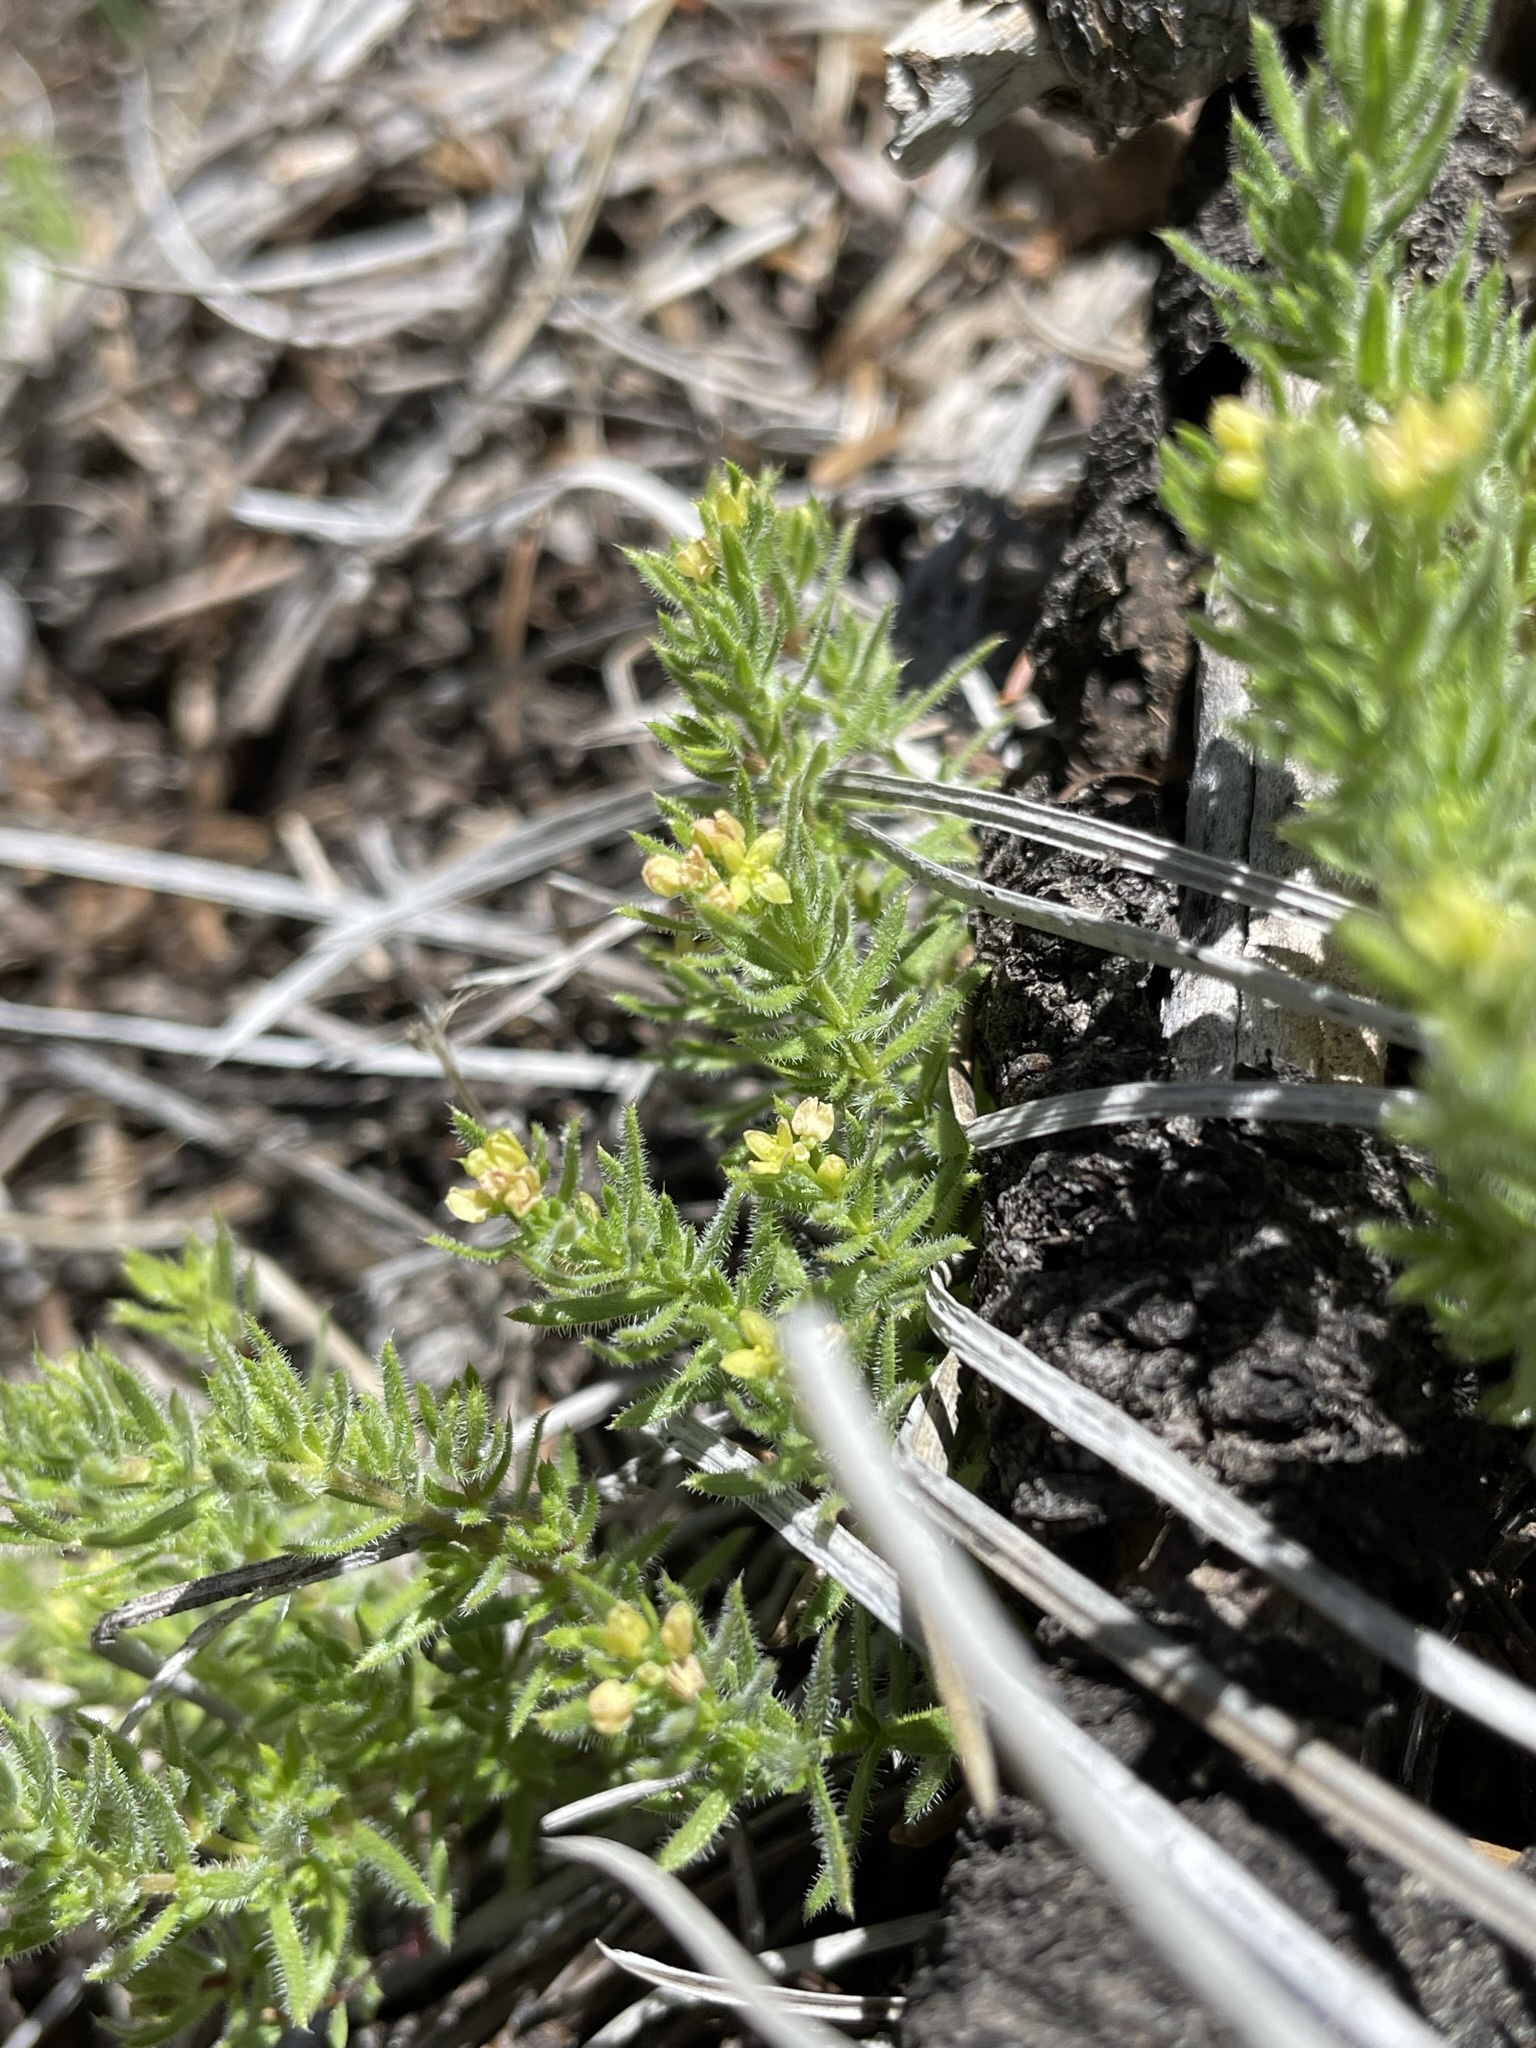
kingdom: Plantae
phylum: Tracheophyta
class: Magnoliopsida
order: Gentianales
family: Rubiaceae
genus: Galium
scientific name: Galium
